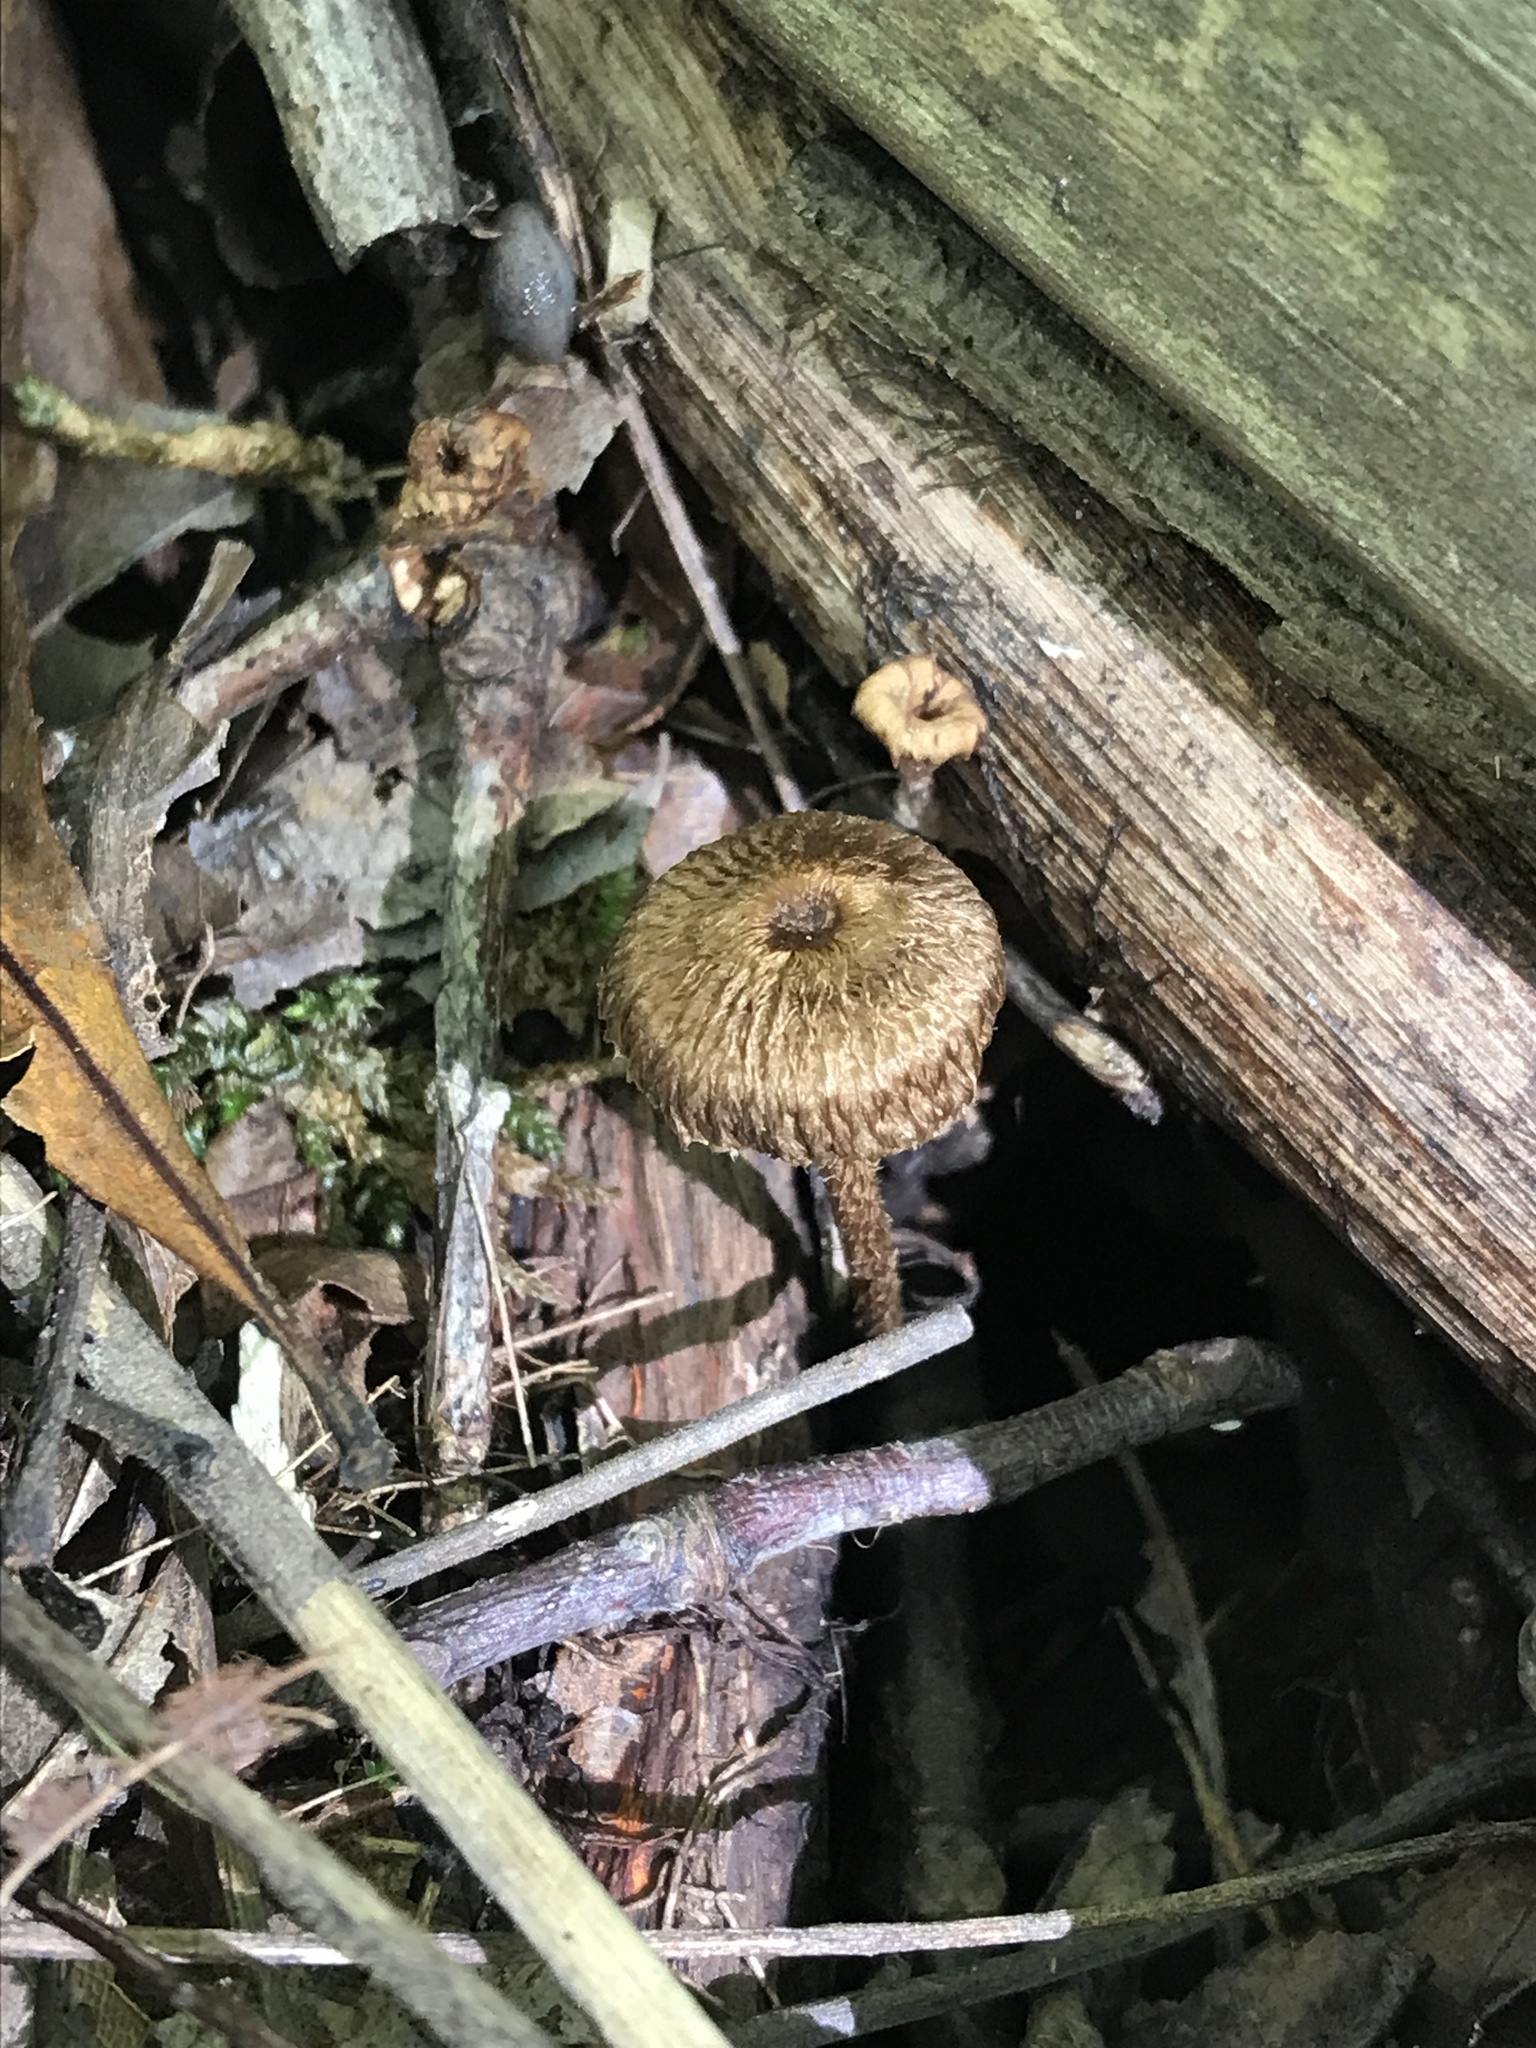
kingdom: Fungi
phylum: Basidiomycota
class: Agaricomycetes
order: Agaricales
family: Tricholomataceae
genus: Collybia
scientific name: Collybia zonata
